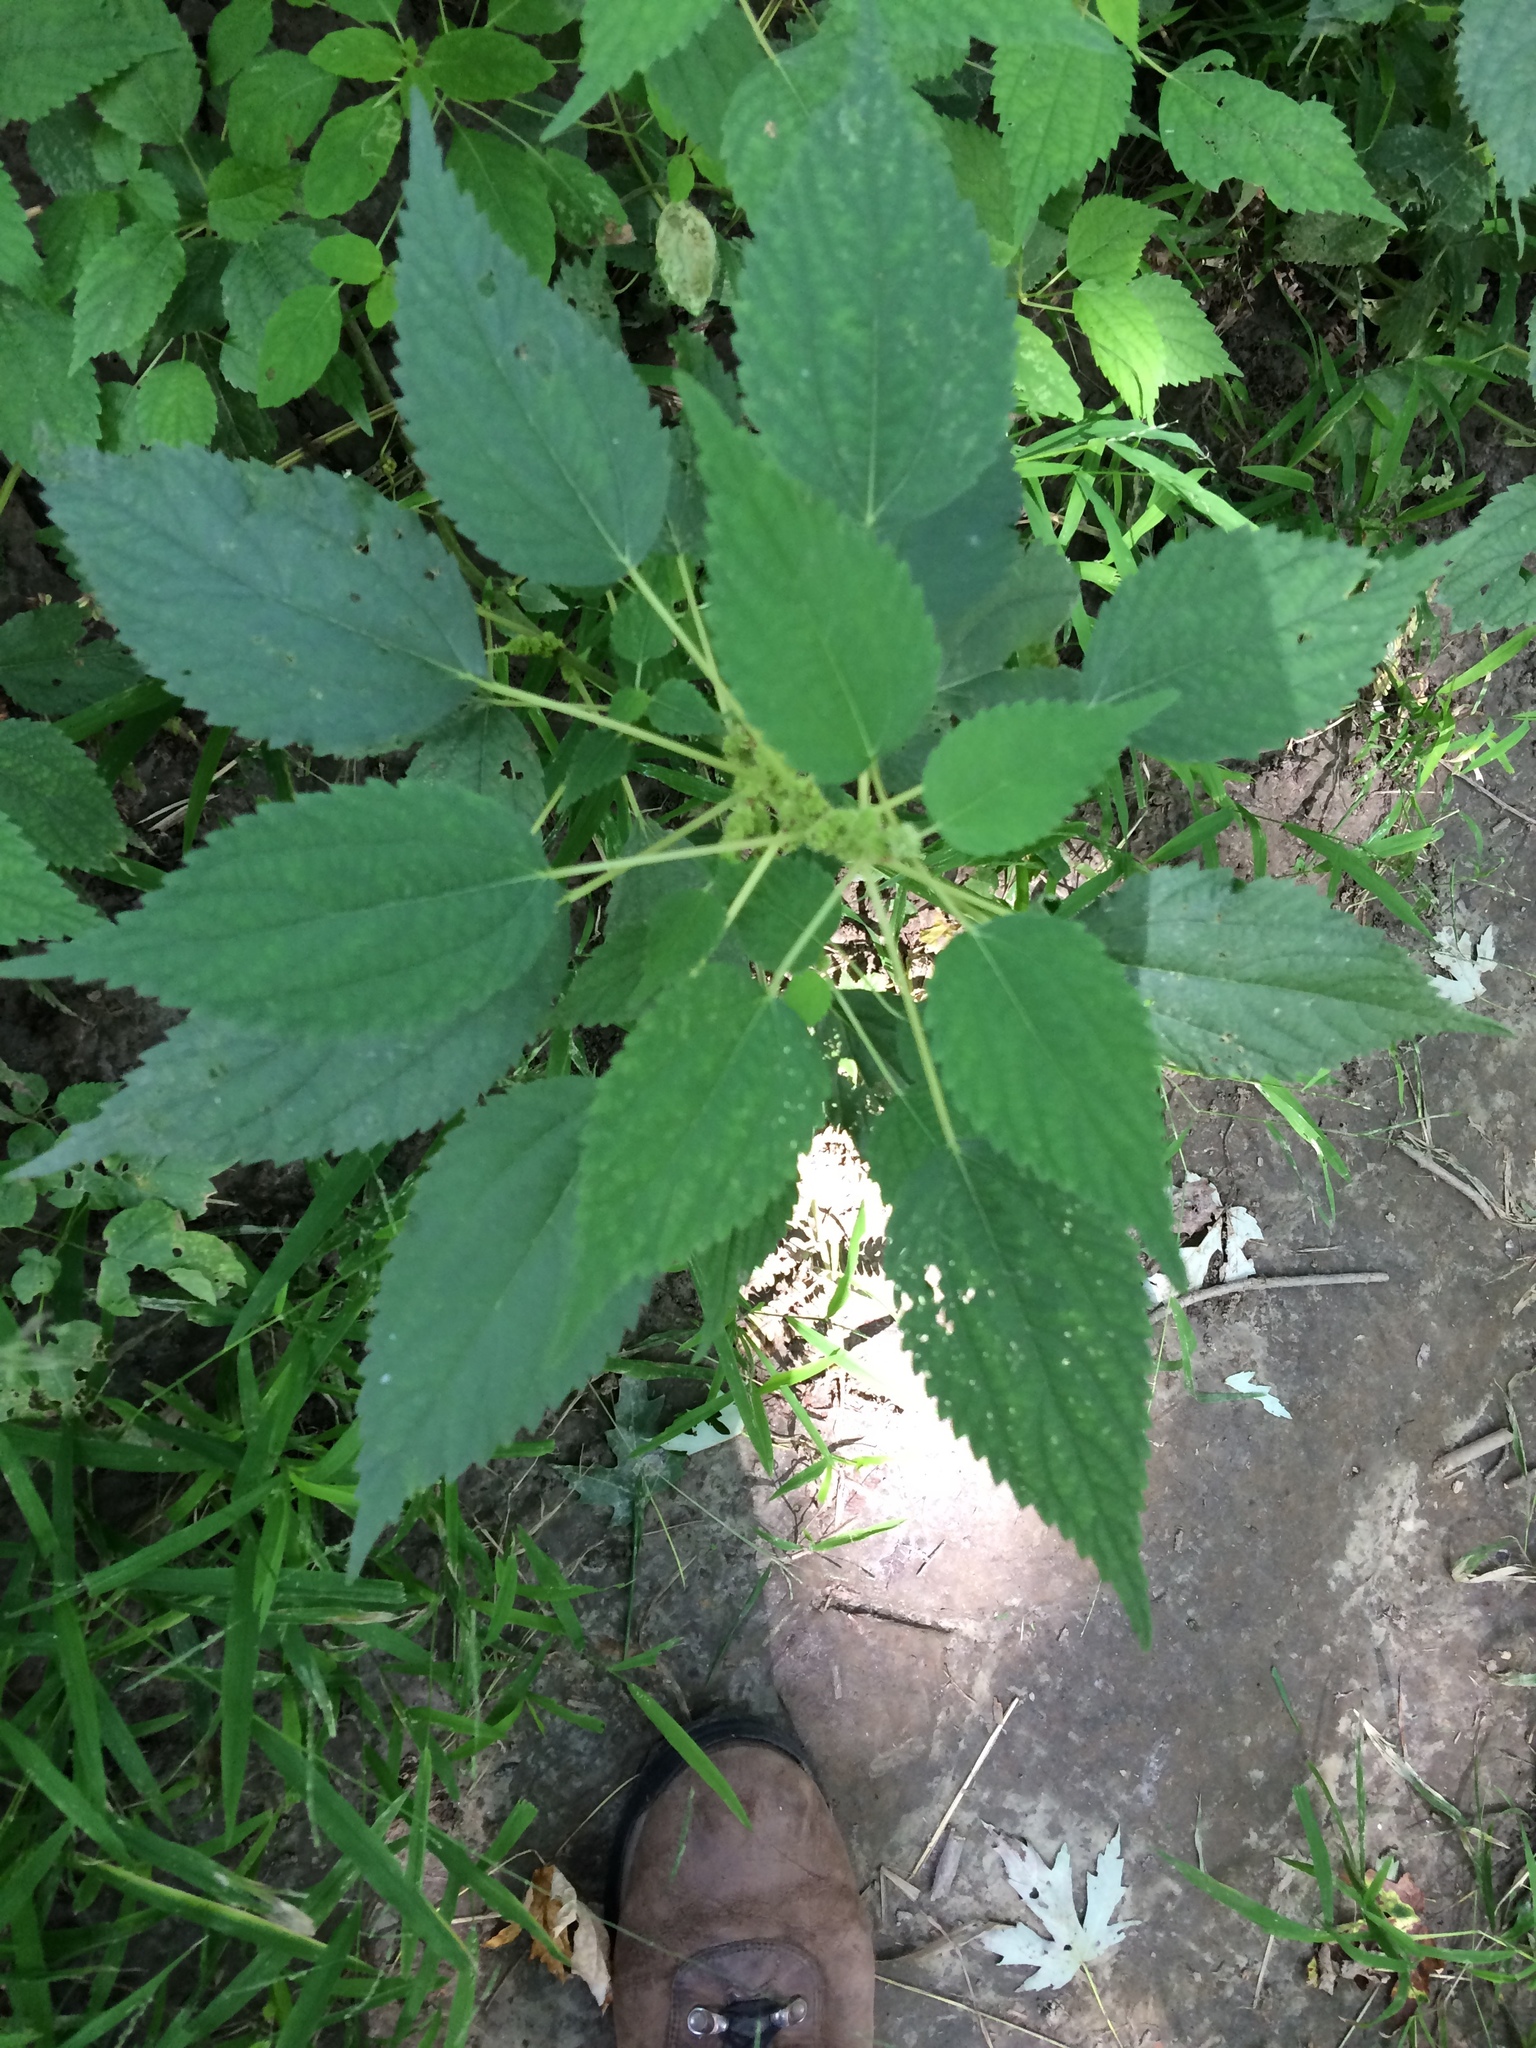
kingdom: Plantae
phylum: Tracheophyta
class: Magnoliopsida
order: Rosales
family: Urticaceae
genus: Boehmeria
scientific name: Boehmeria cylindrica
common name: Bog-hemp
